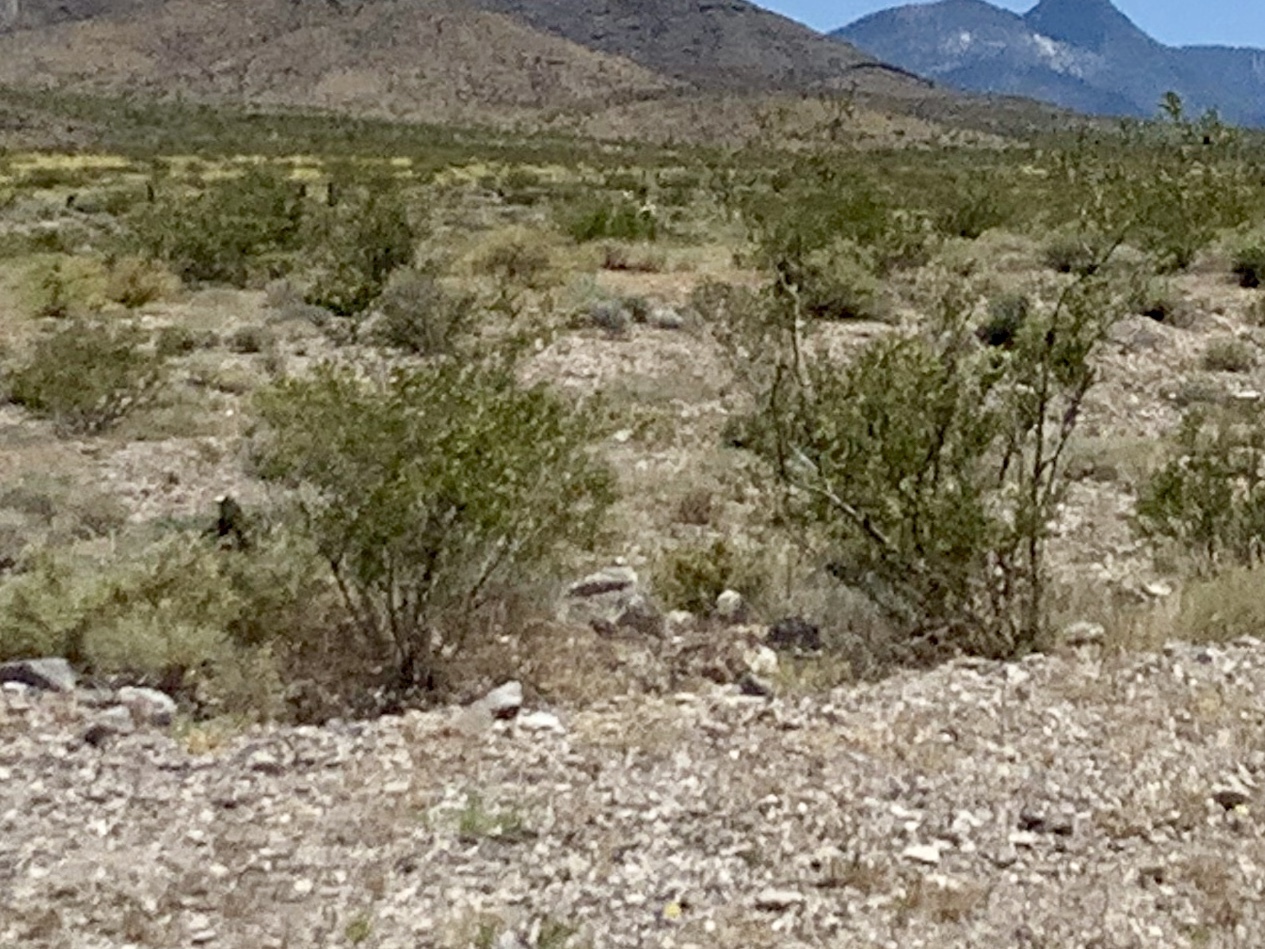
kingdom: Plantae
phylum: Tracheophyta
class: Magnoliopsida
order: Zygophyllales
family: Zygophyllaceae
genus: Larrea
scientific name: Larrea tridentata
